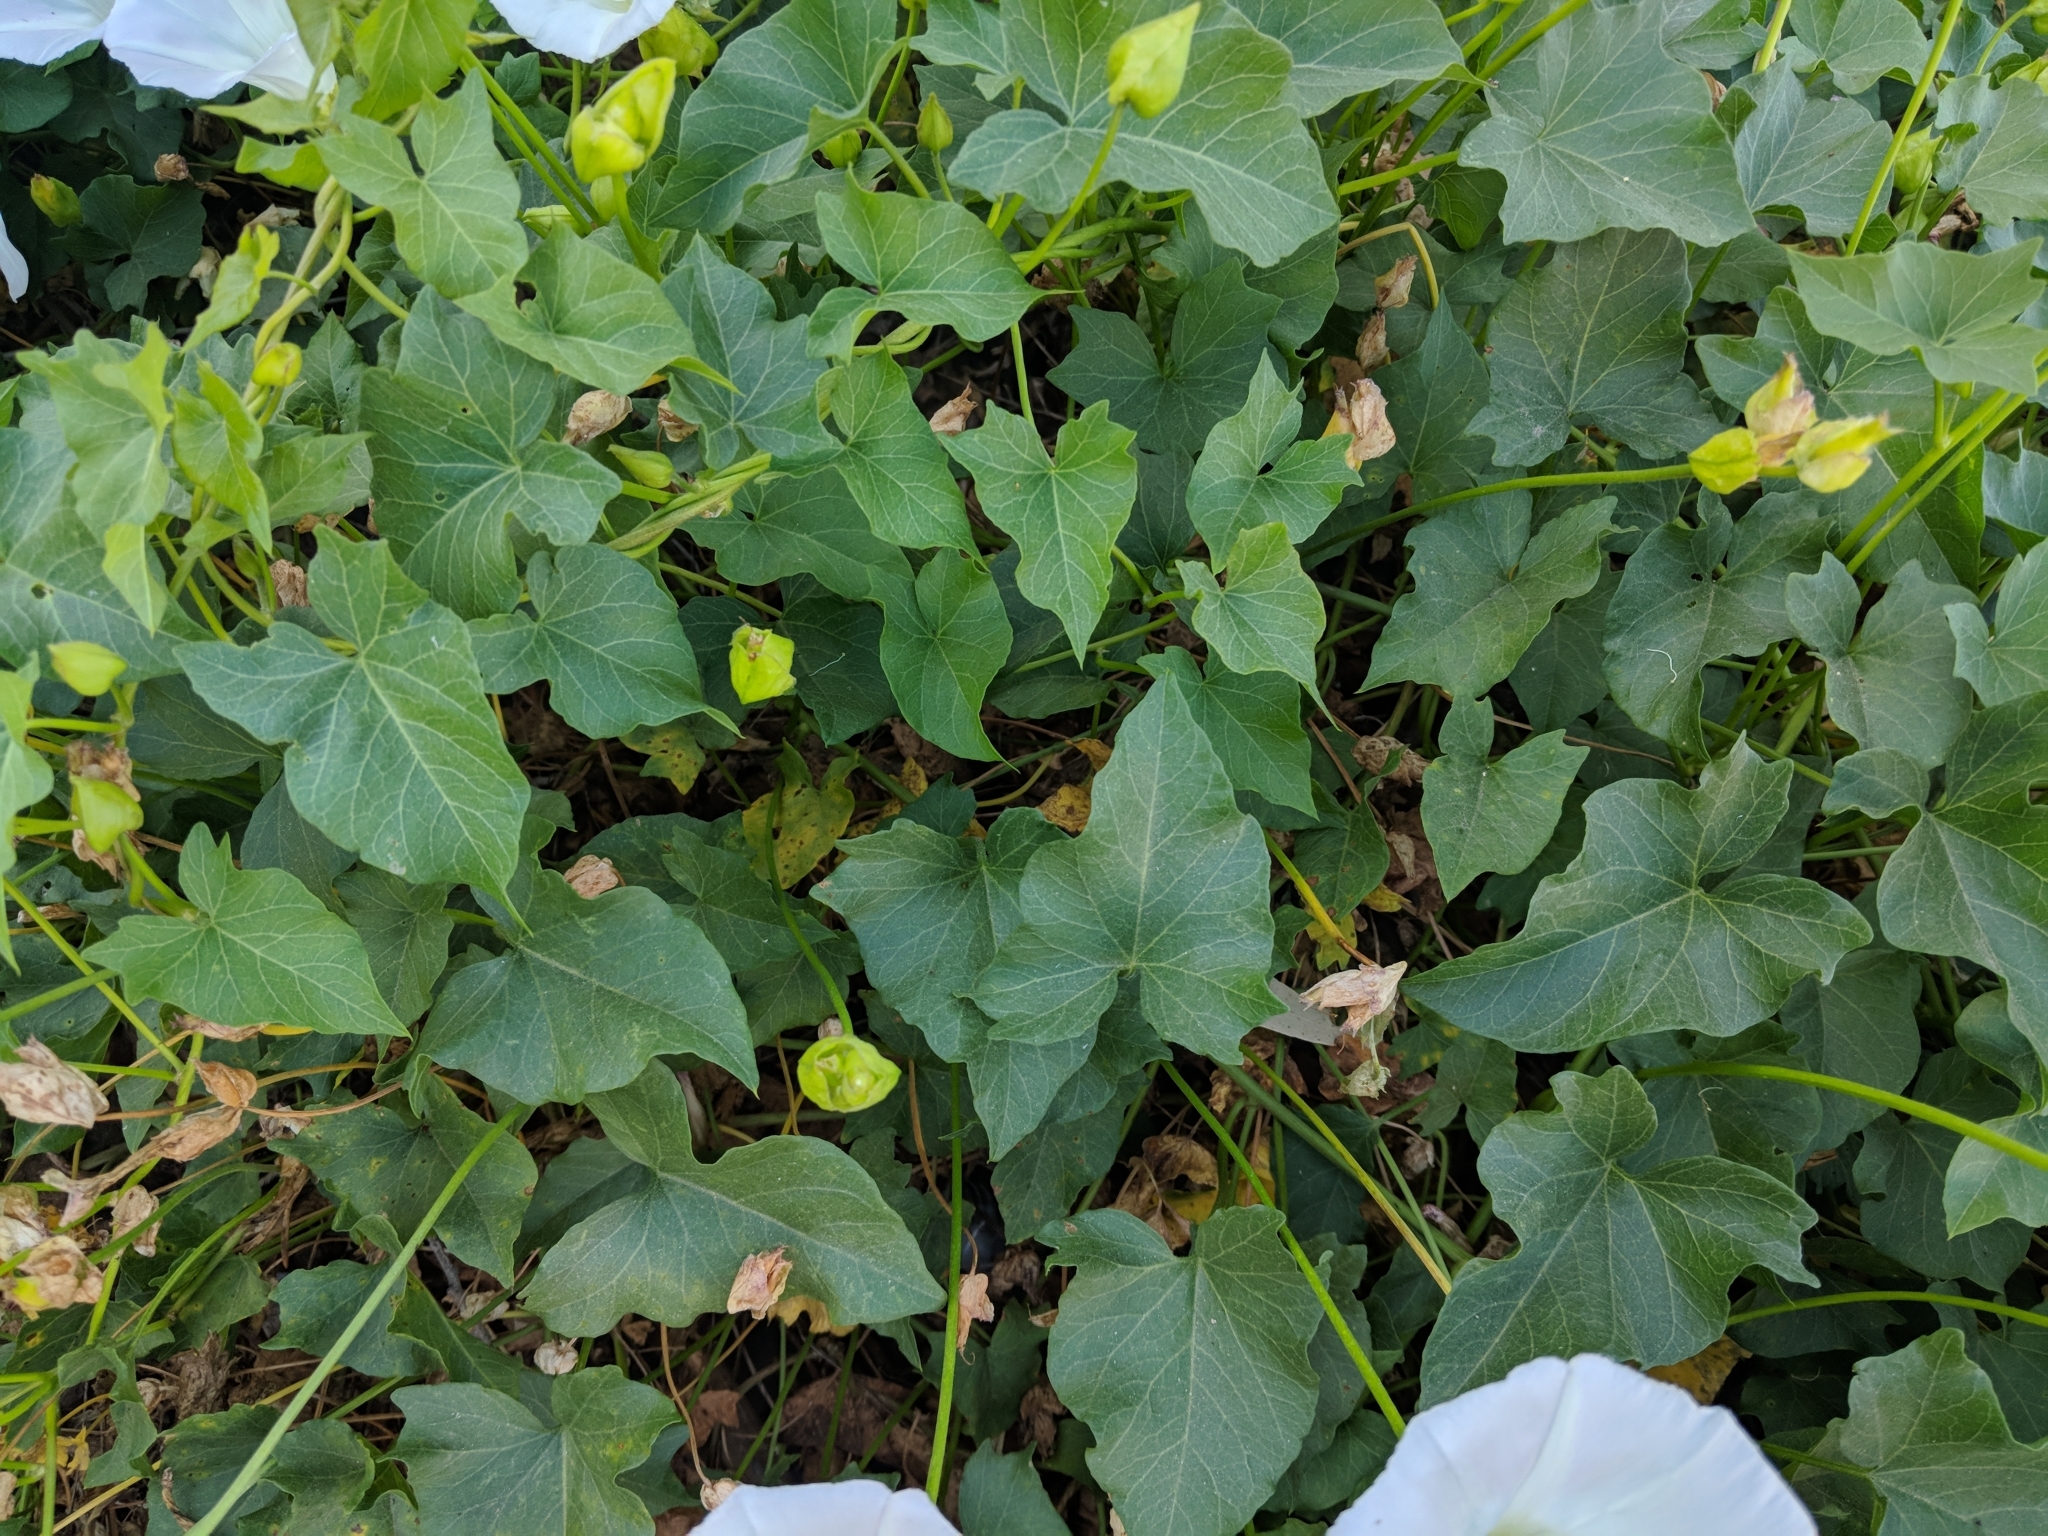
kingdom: Plantae
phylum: Tracheophyta
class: Magnoliopsida
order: Solanales
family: Convolvulaceae
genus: Calystegia
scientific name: Calystegia macrostegia
